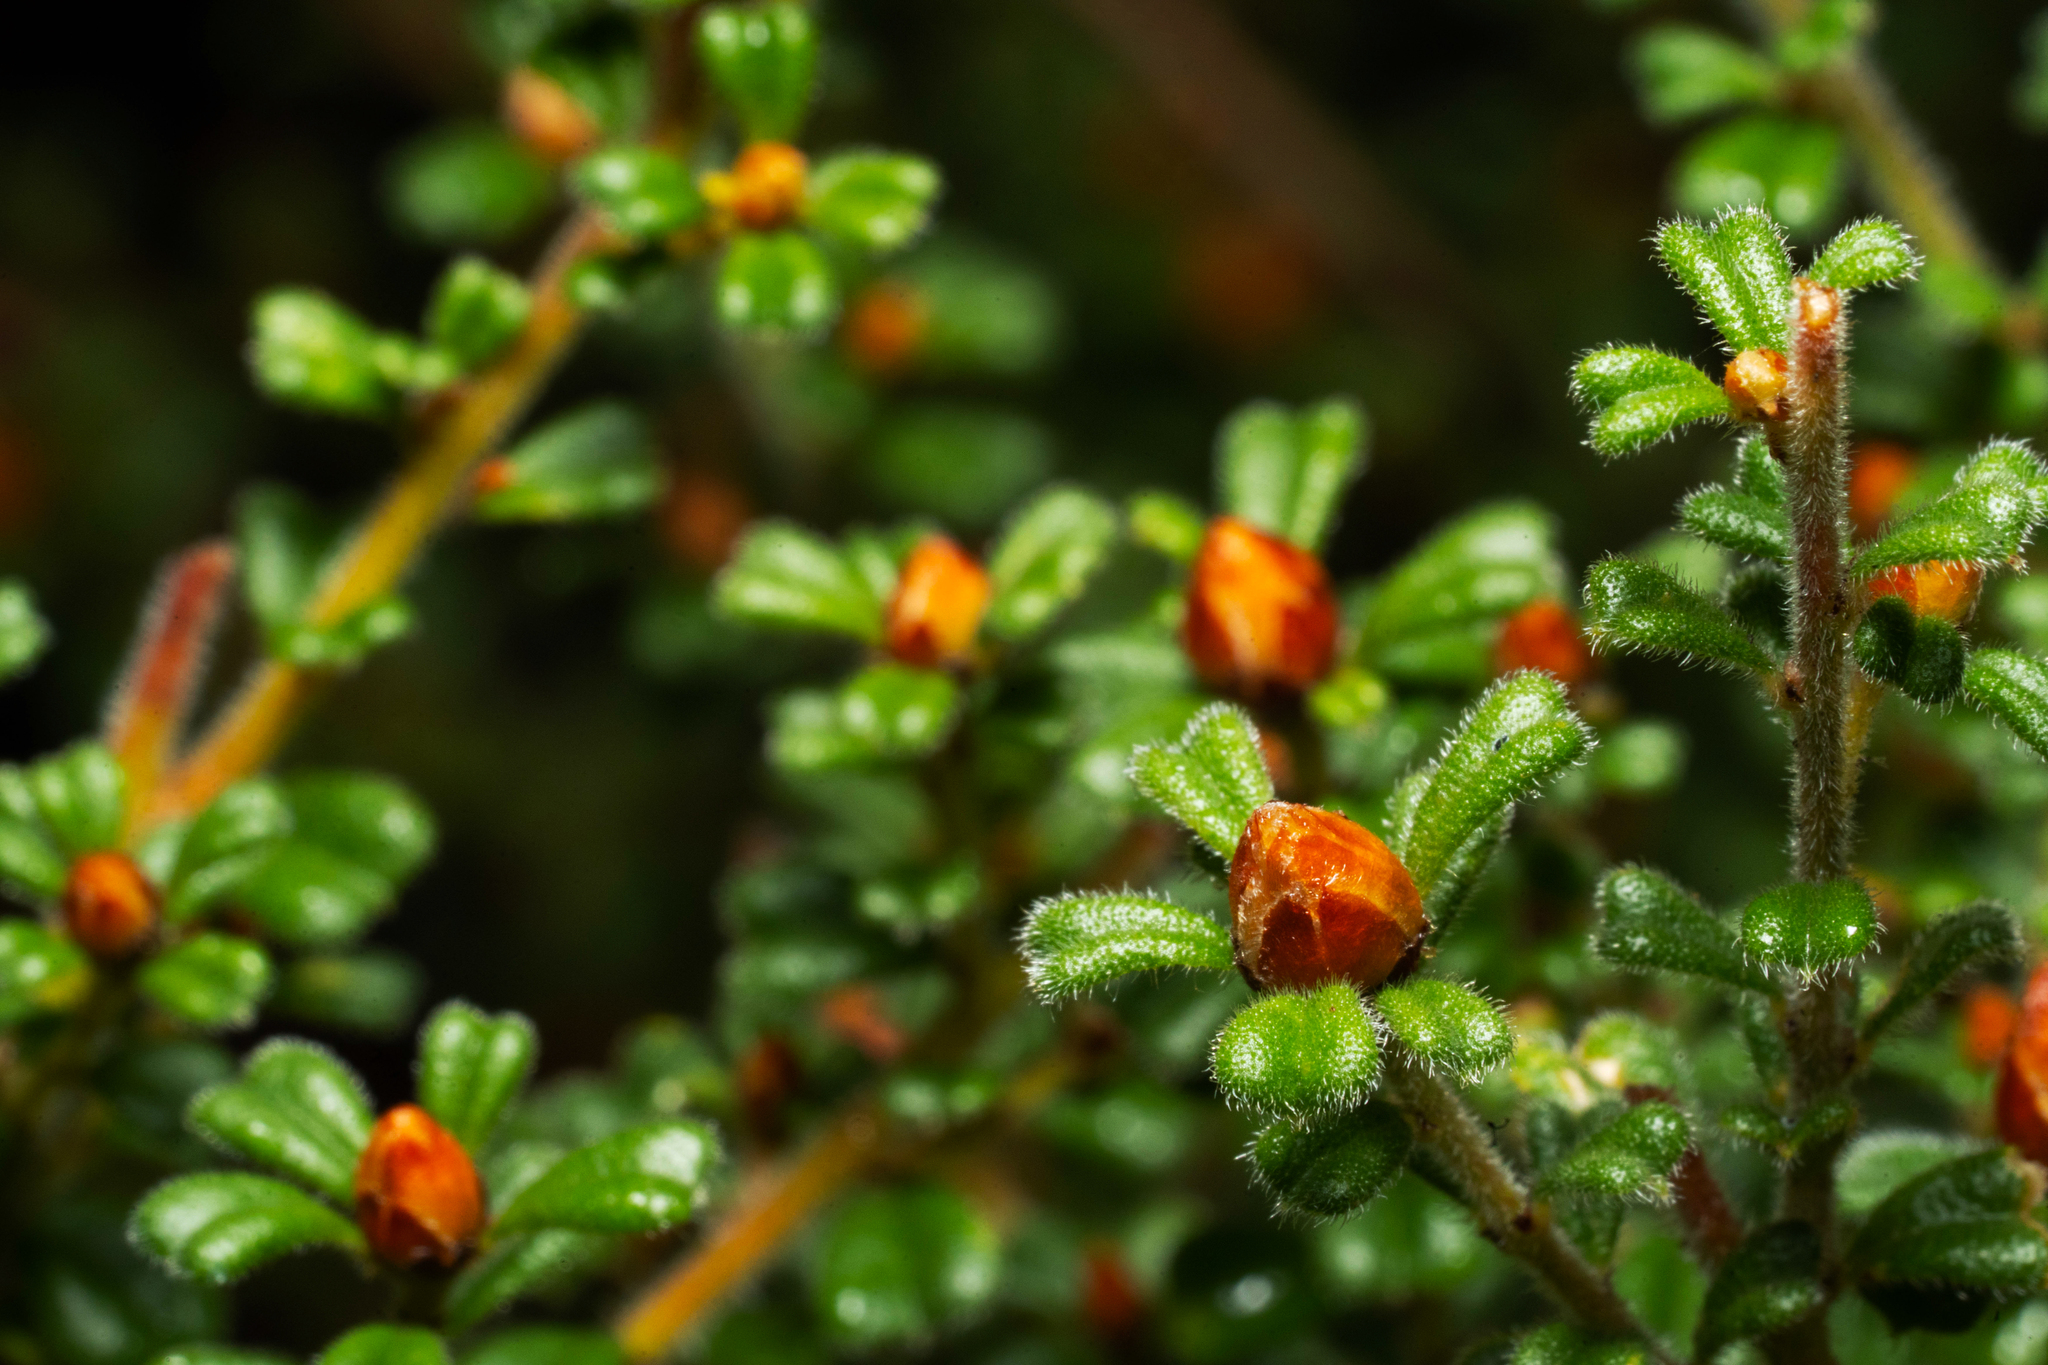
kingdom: Plantae
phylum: Tracheophyta
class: Magnoliopsida
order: Fabales
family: Fabaceae
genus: Pultenaea
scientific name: Pultenaea scabra
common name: Rough bush-pea
